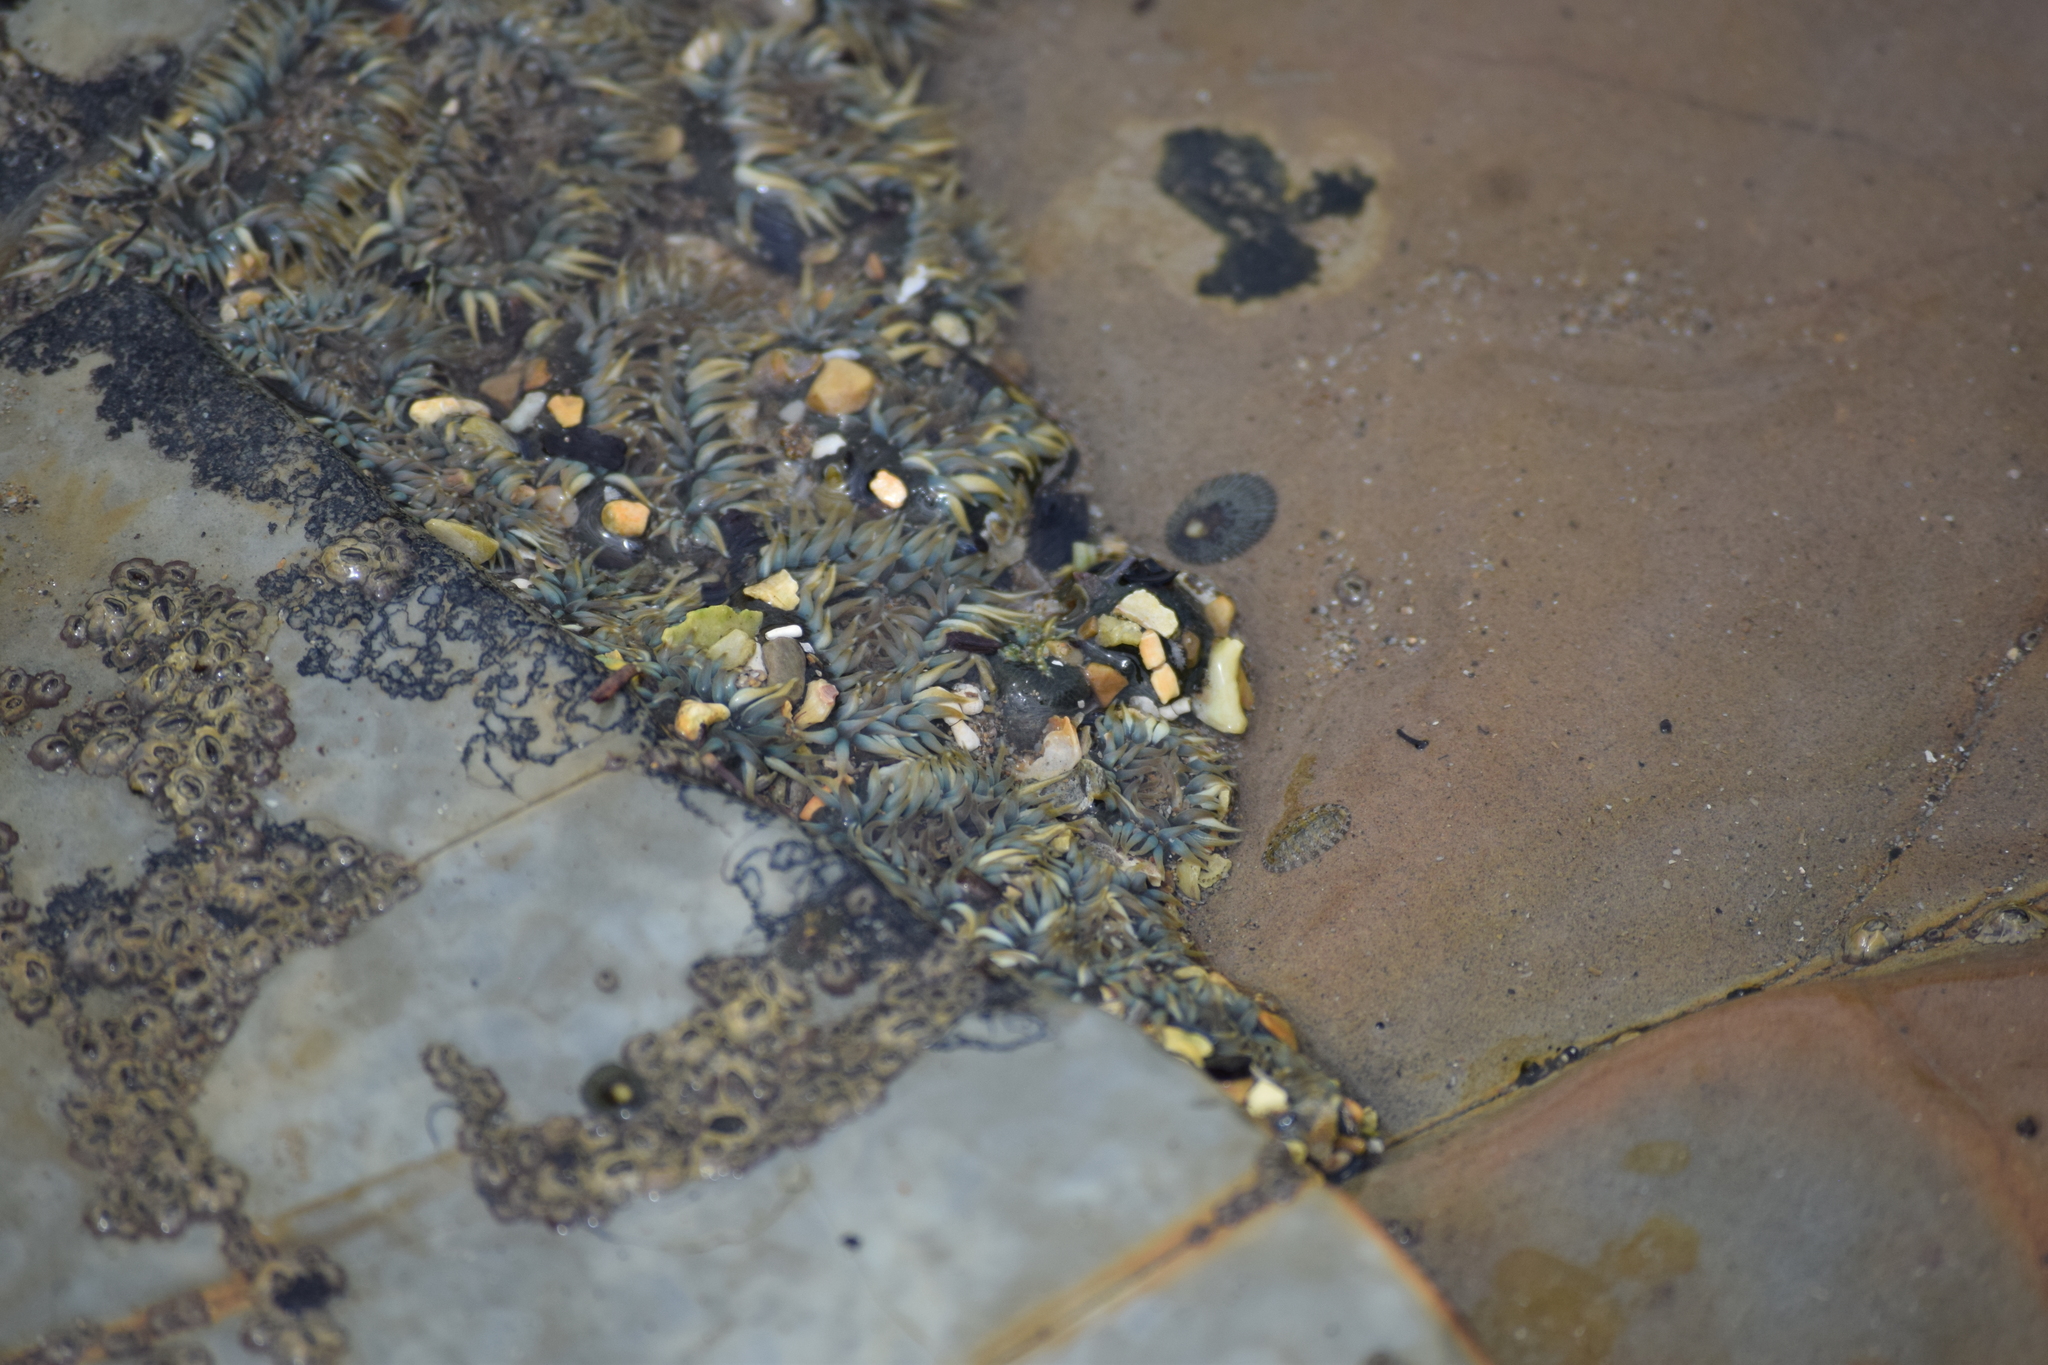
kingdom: Animalia
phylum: Cnidaria
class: Anthozoa
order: Actiniaria
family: Actiniidae
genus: Anthopleura
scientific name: Anthopleura elegantissima
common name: Clonal anemone
